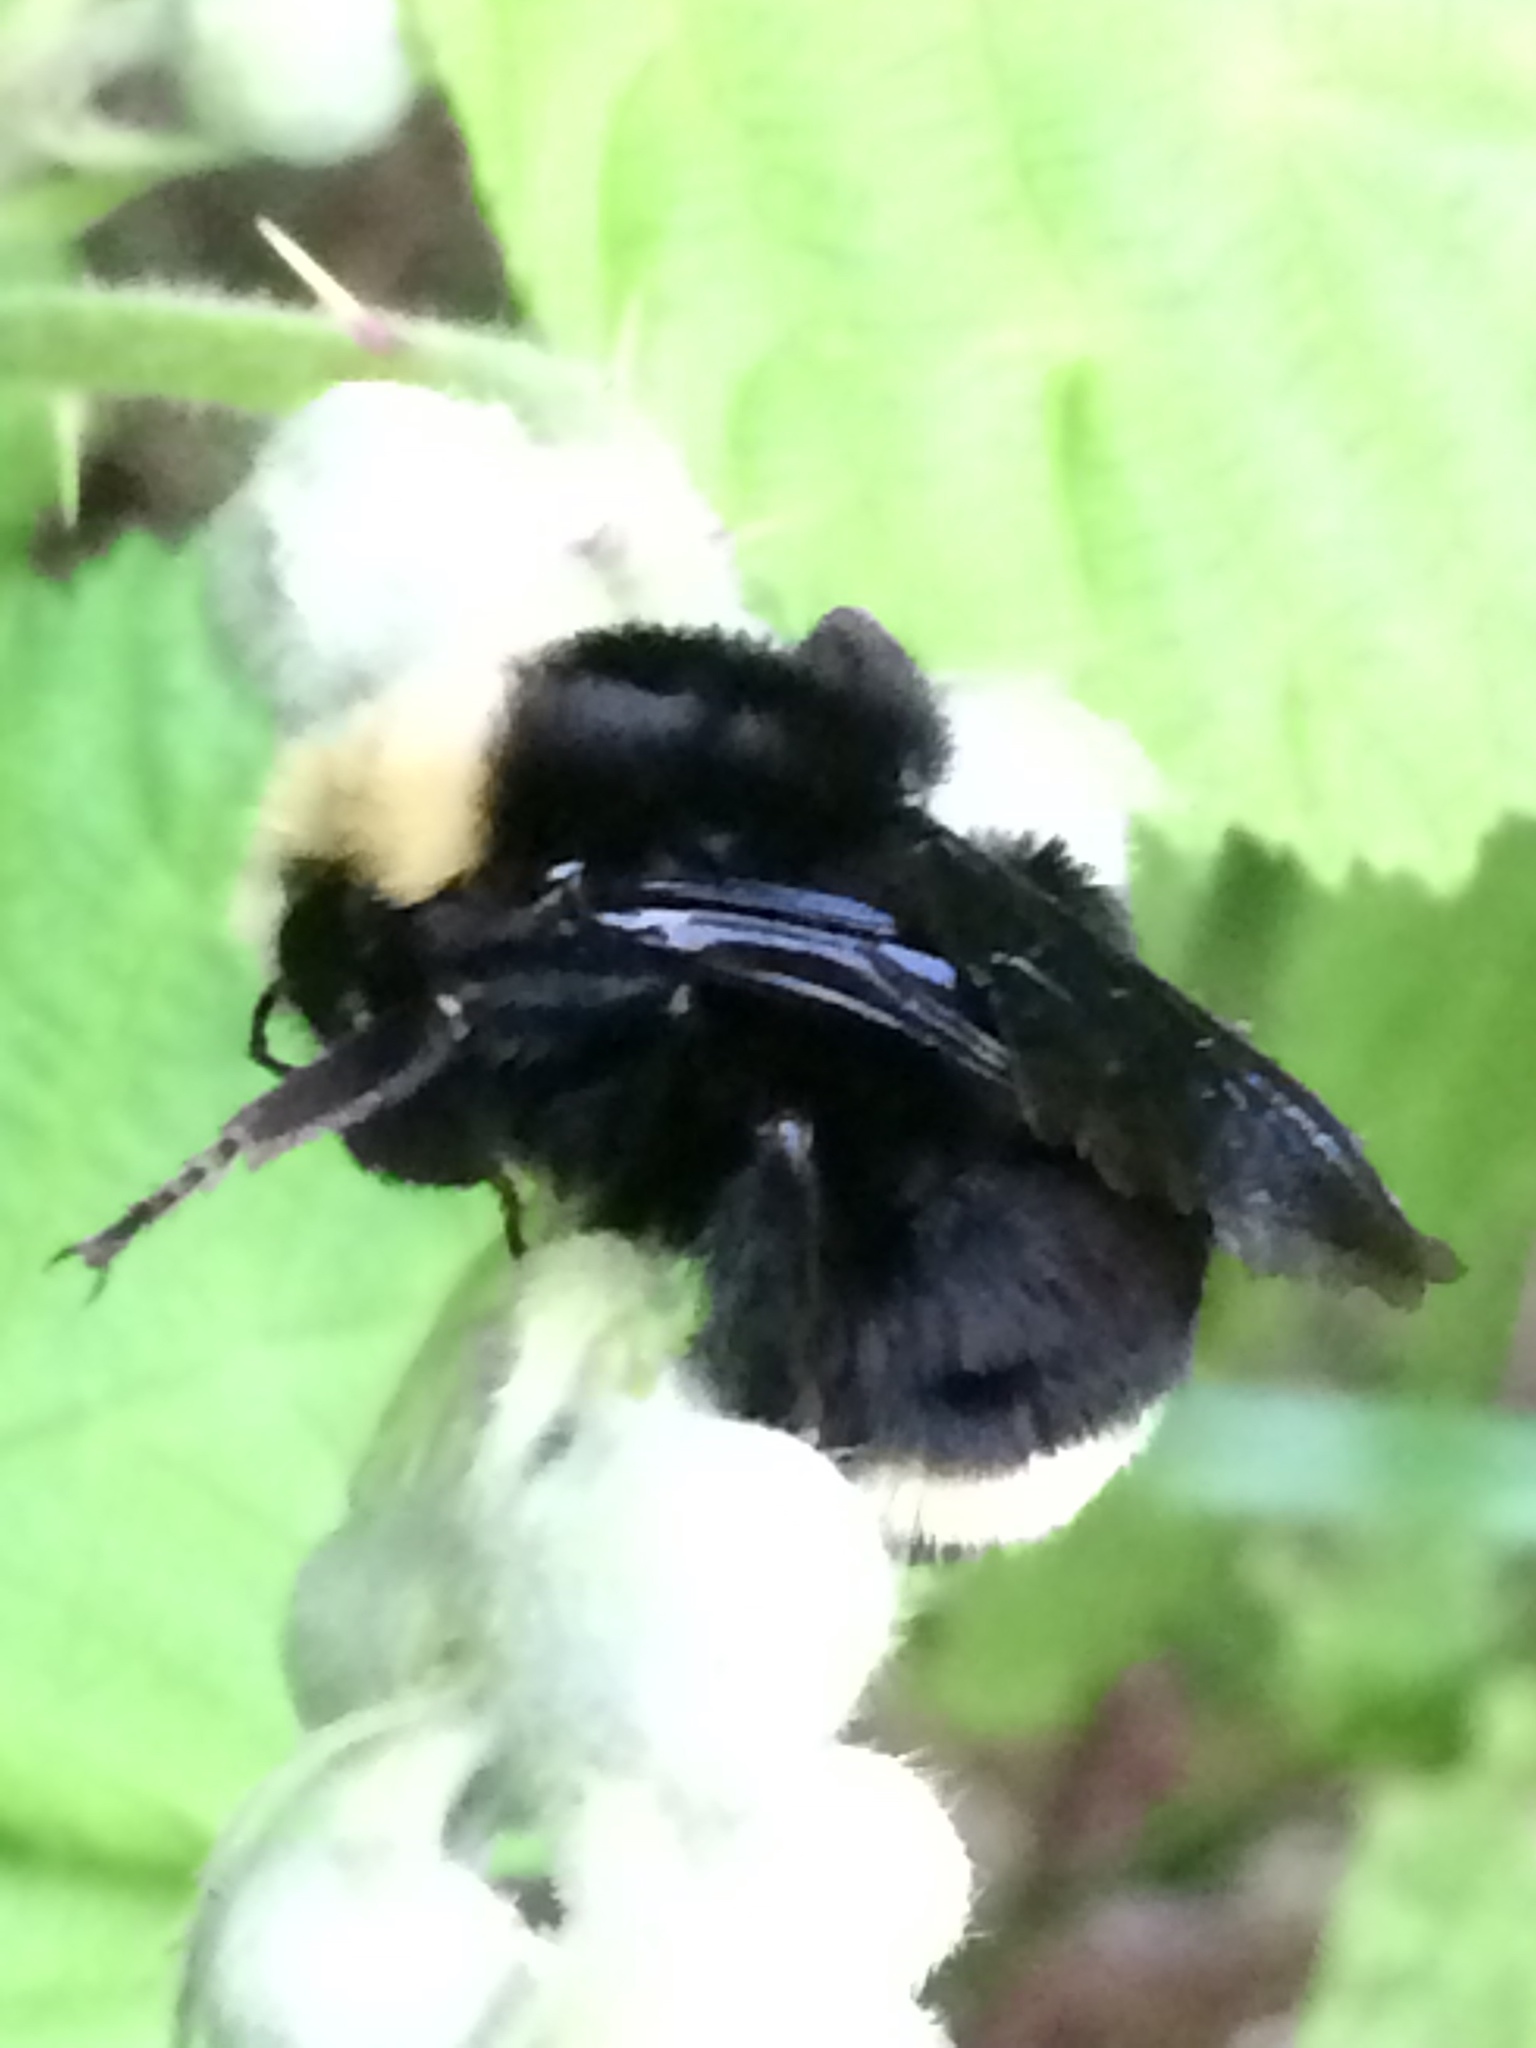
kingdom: Animalia
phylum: Arthropoda
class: Insecta
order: Hymenoptera
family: Apidae
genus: Bombus
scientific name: Bombus vosnesenskii
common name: Vosnesensky bumble bee
